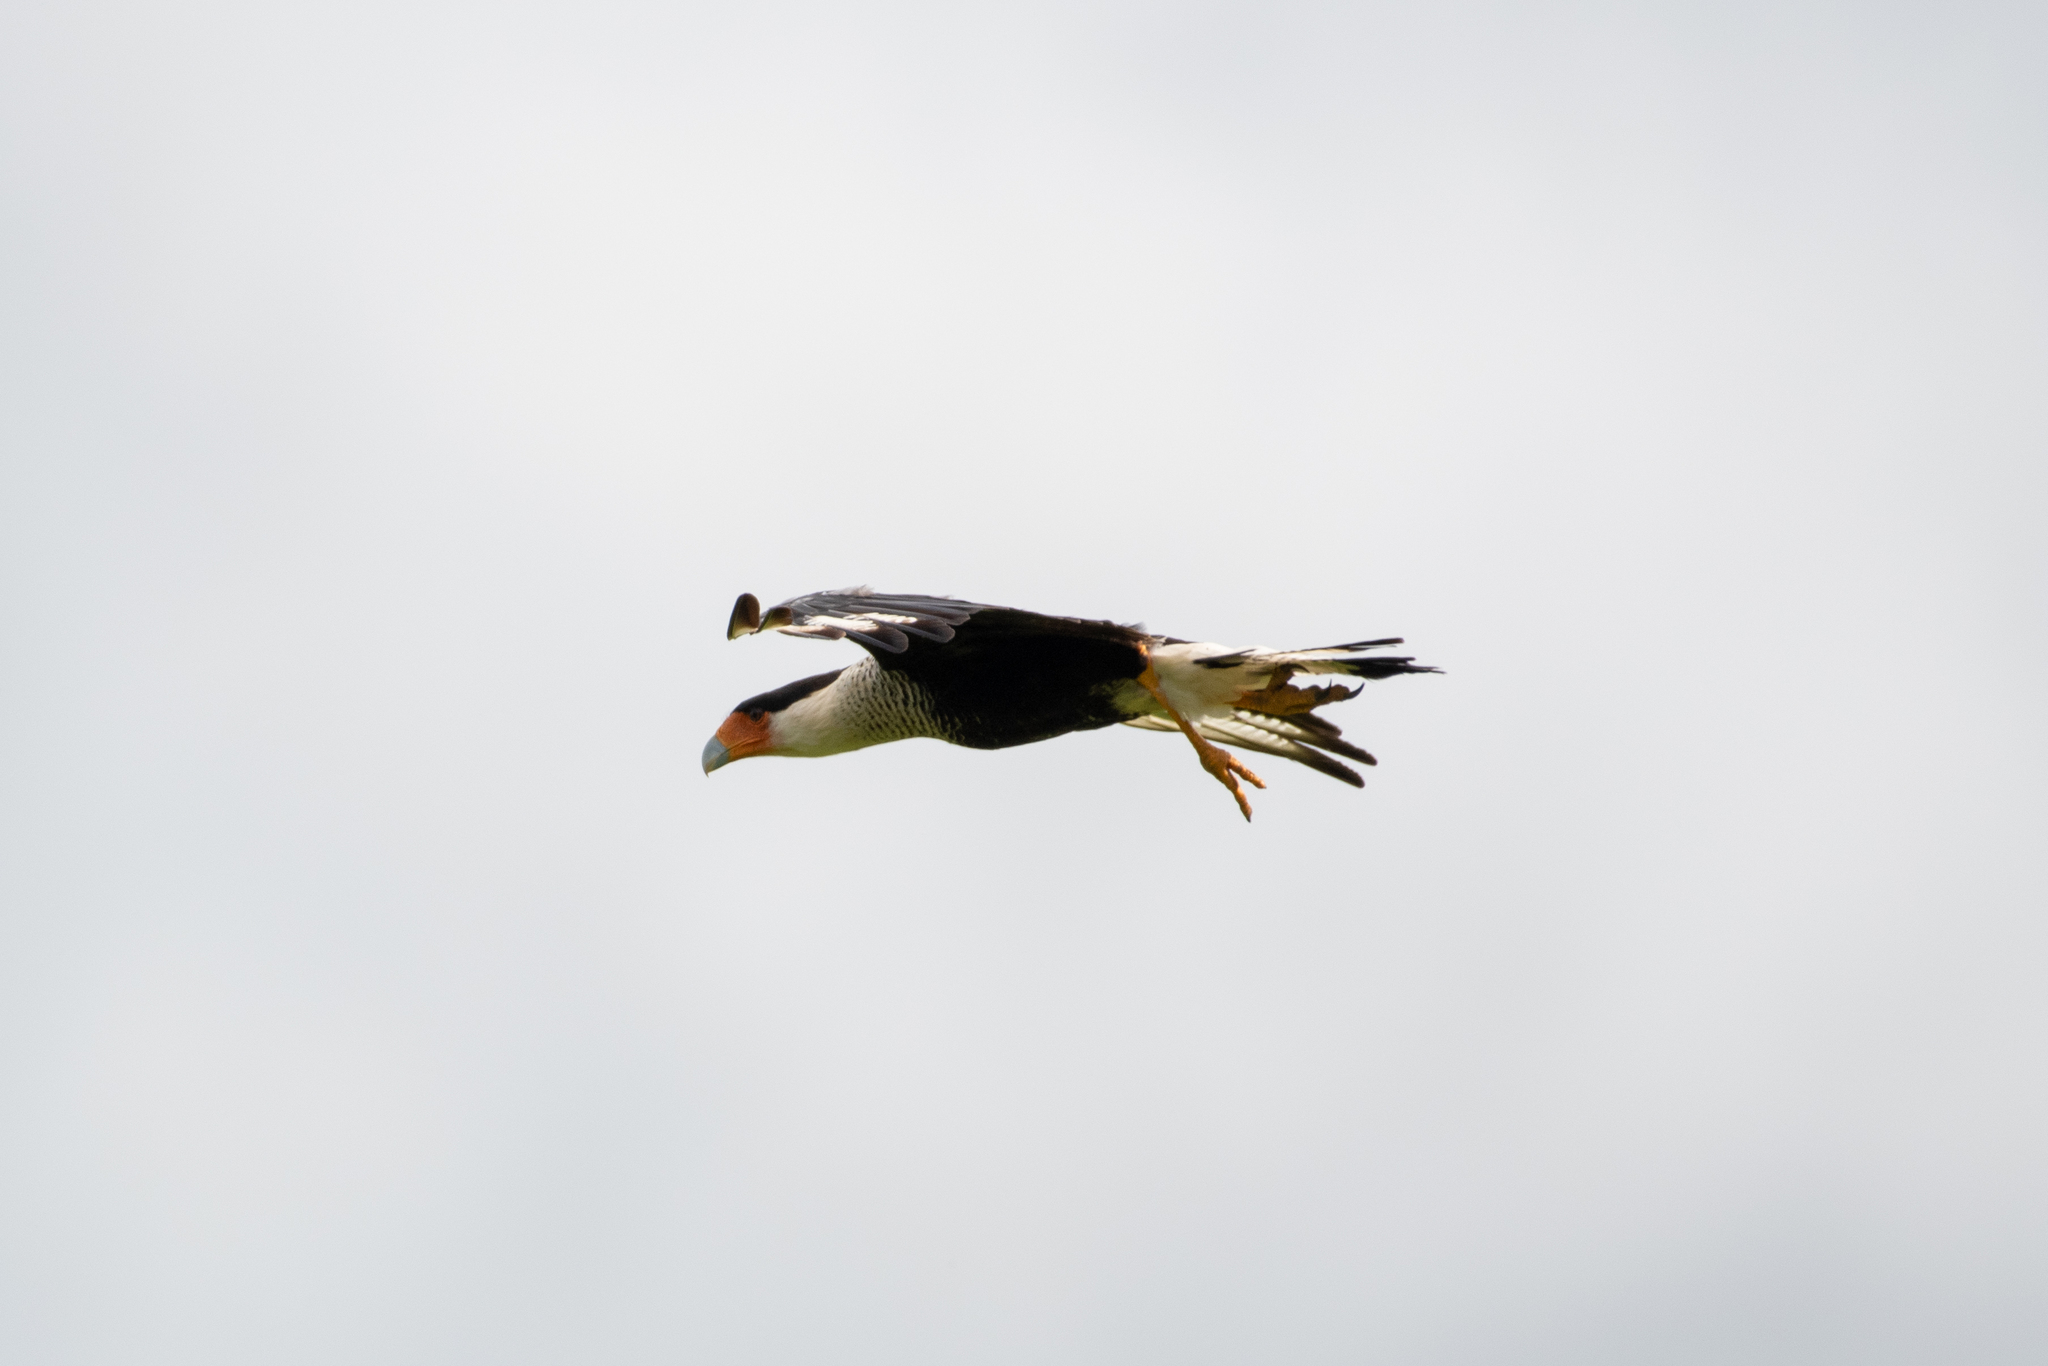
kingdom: Animalia
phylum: Chordata
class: Aves
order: Falconiformes
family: Falconidae
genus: Caracara
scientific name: Caracara plancus
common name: Southern caracara
